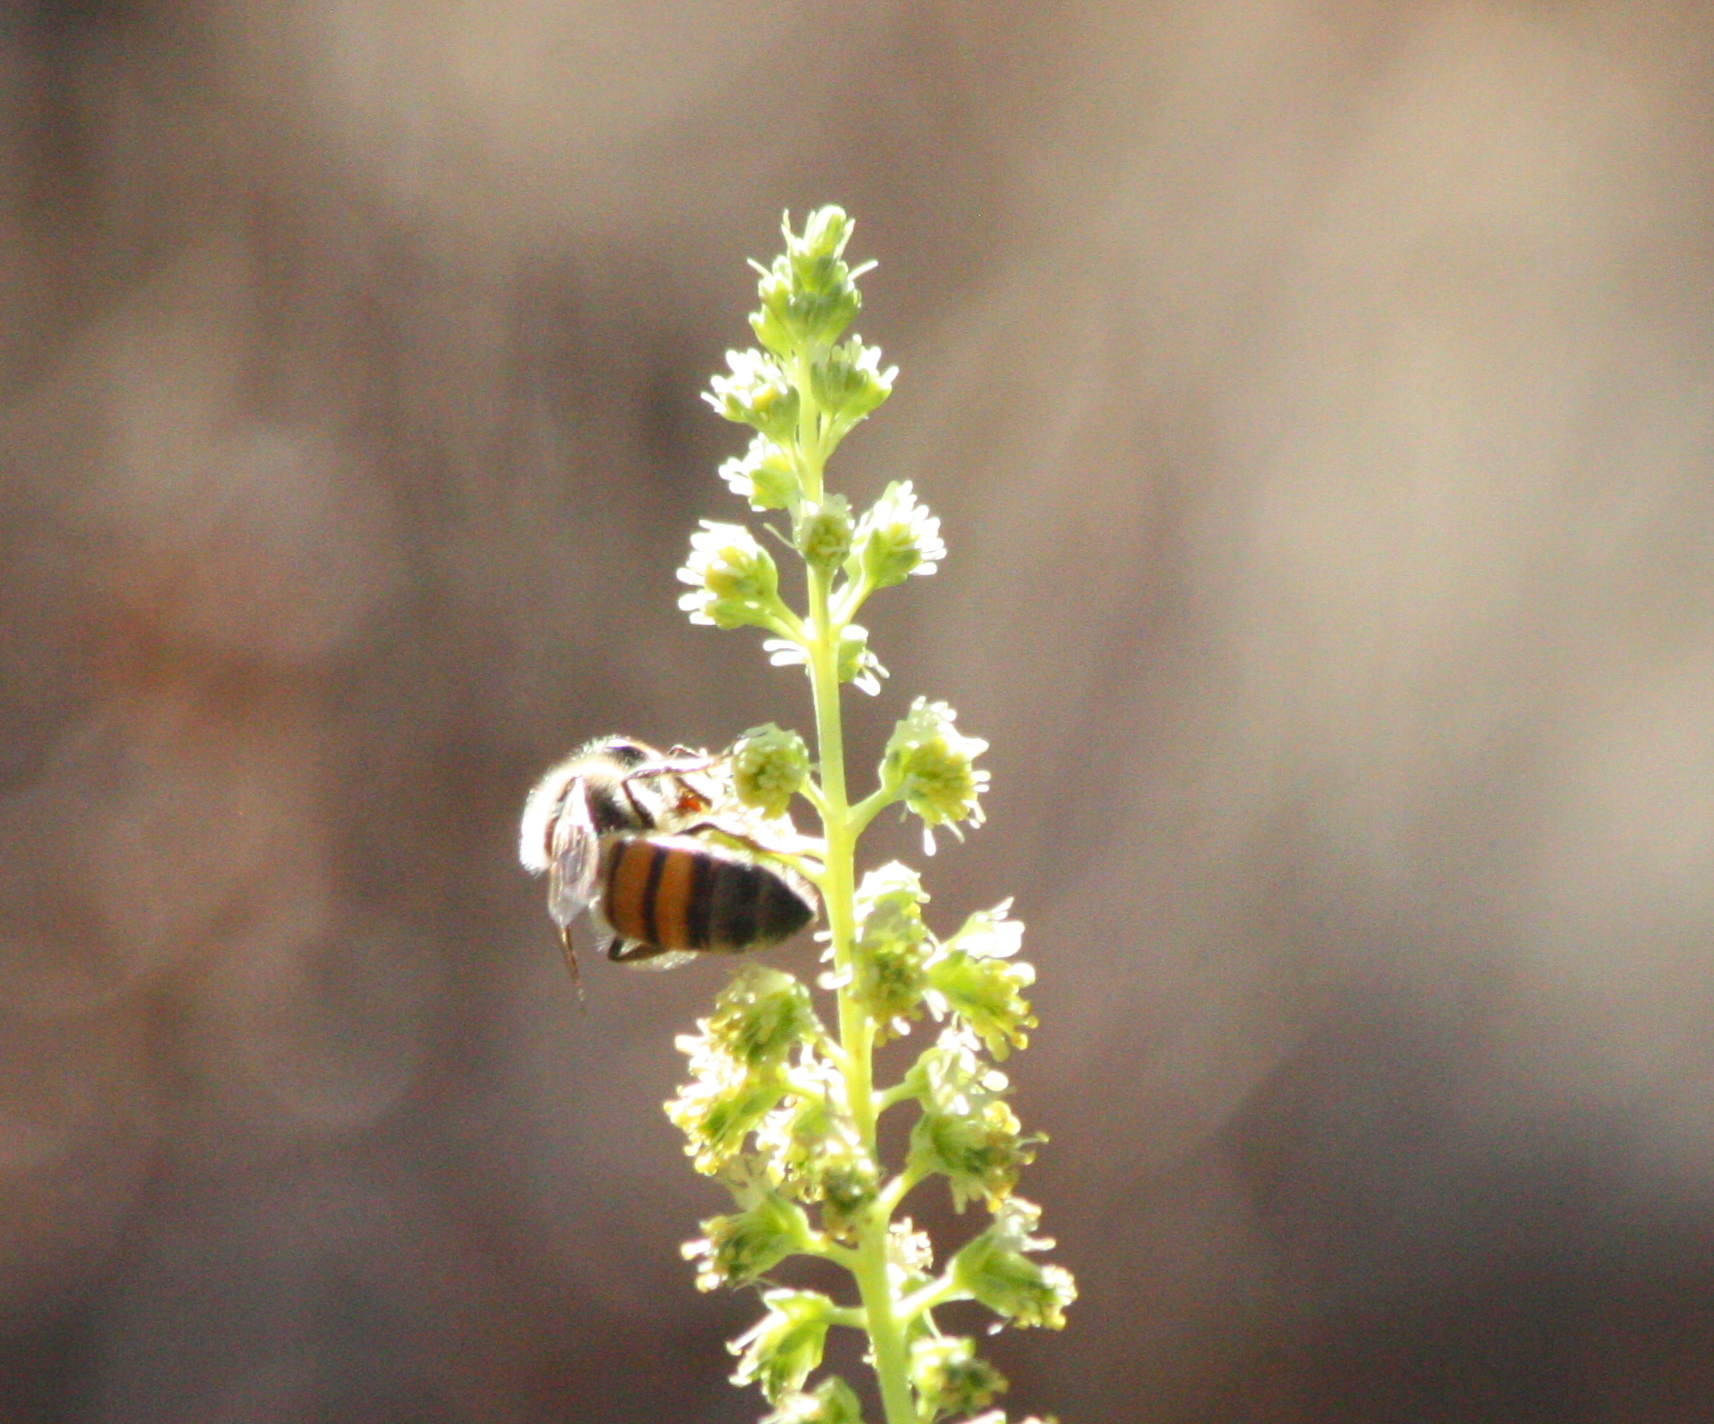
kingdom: Animalia
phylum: Arthropoda
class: Insecta
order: Hymenoptera
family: Apidae
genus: Apis
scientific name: Apis mellifera
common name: Honey bee
